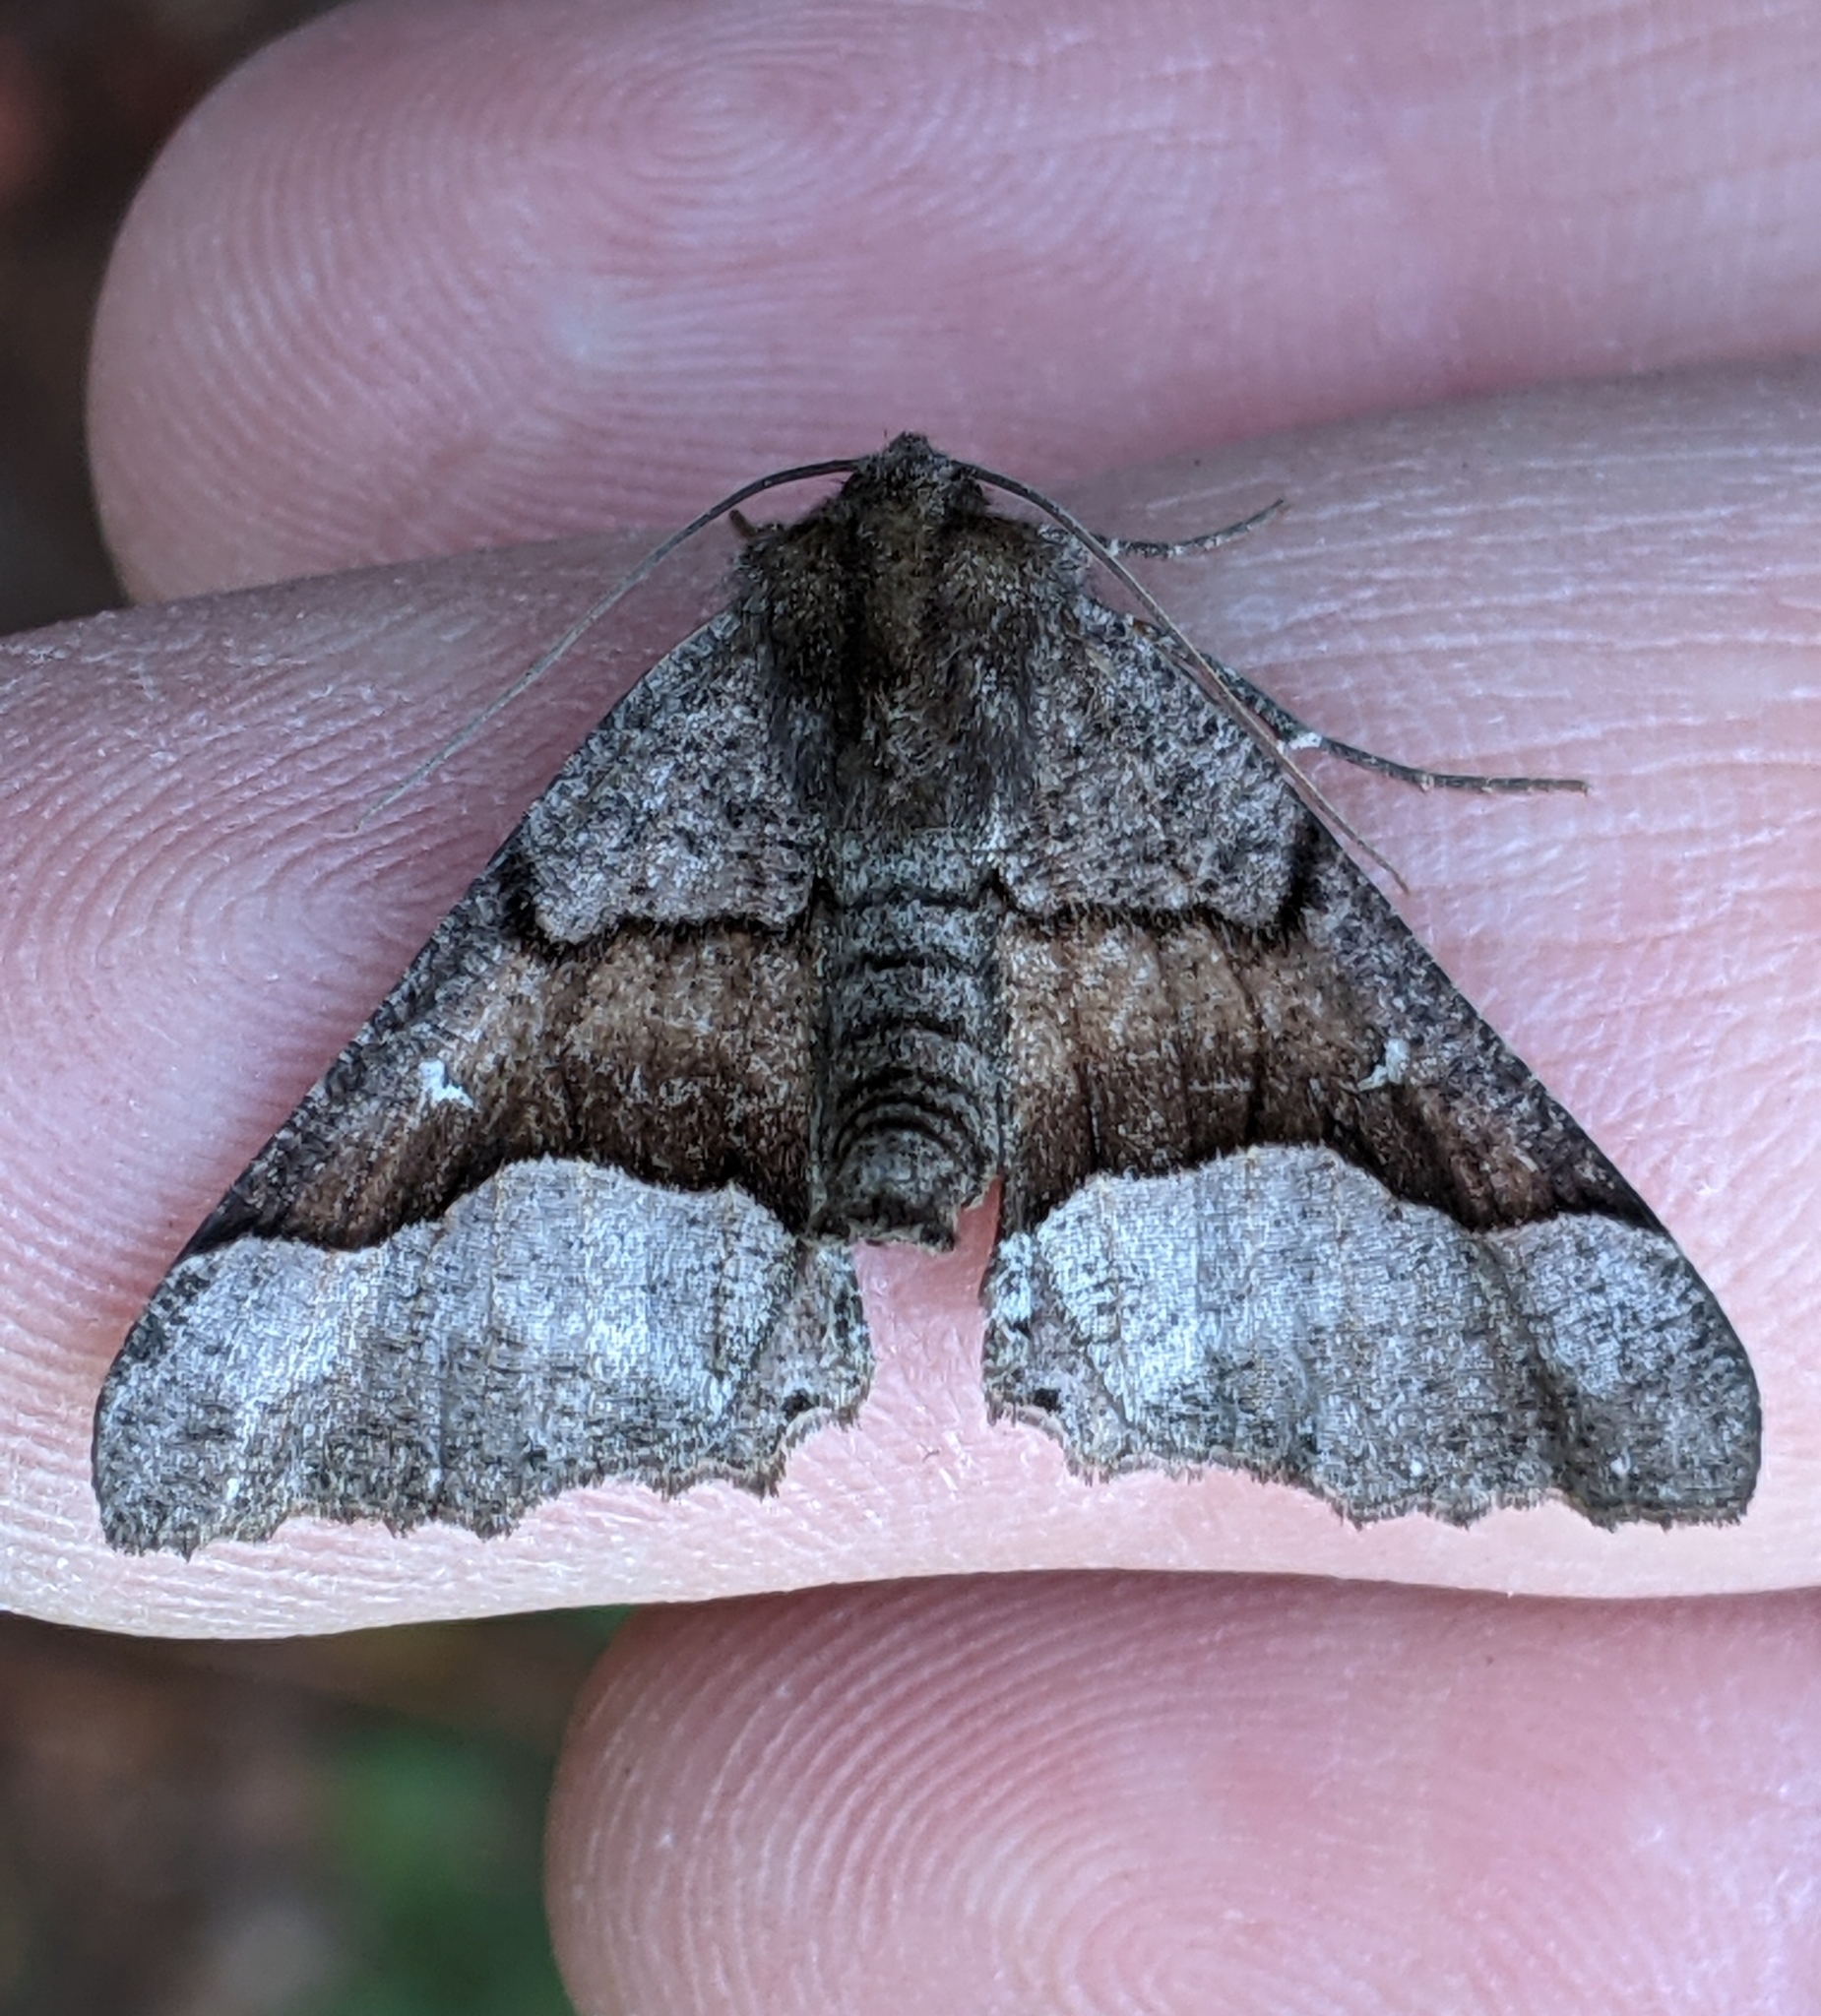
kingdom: Animalia
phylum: Arthropoda
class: Insecta
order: Lepidoptera
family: Geometridae
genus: Pero
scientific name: Pero behrensaria
